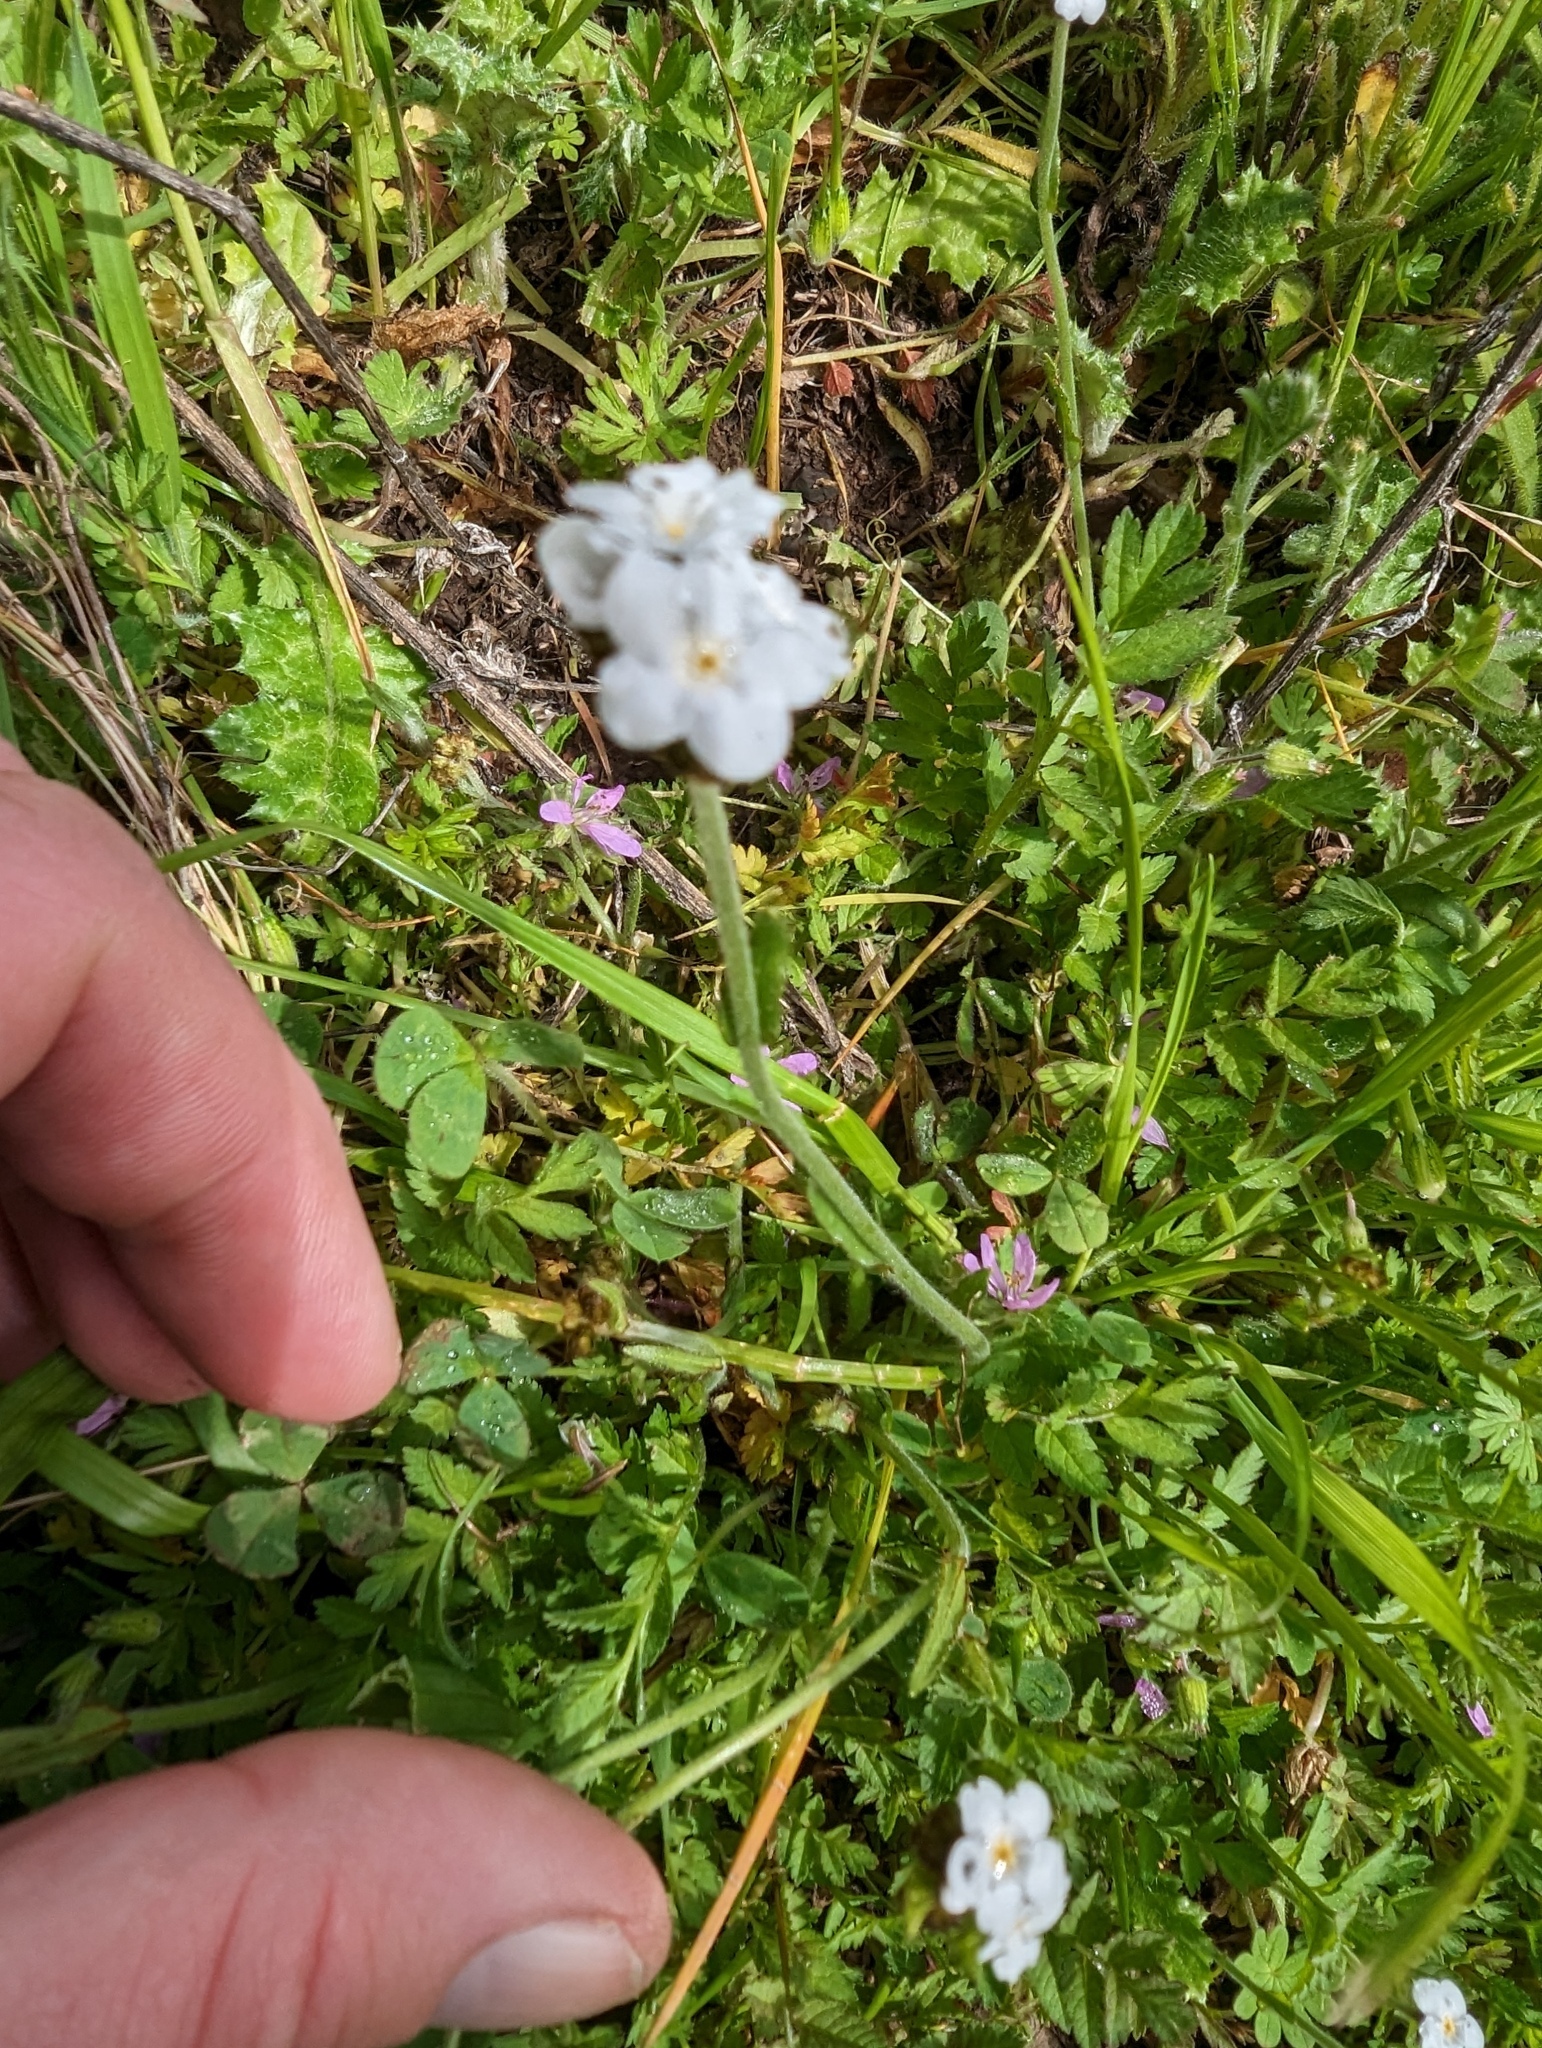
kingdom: Plantae
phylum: Tracheophyta
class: Magnoliopsida
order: Boraginales
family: Boraginaceae
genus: Plagiobothrys
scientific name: Plagiobothrys nothofulvus
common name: Popcorn-flower
